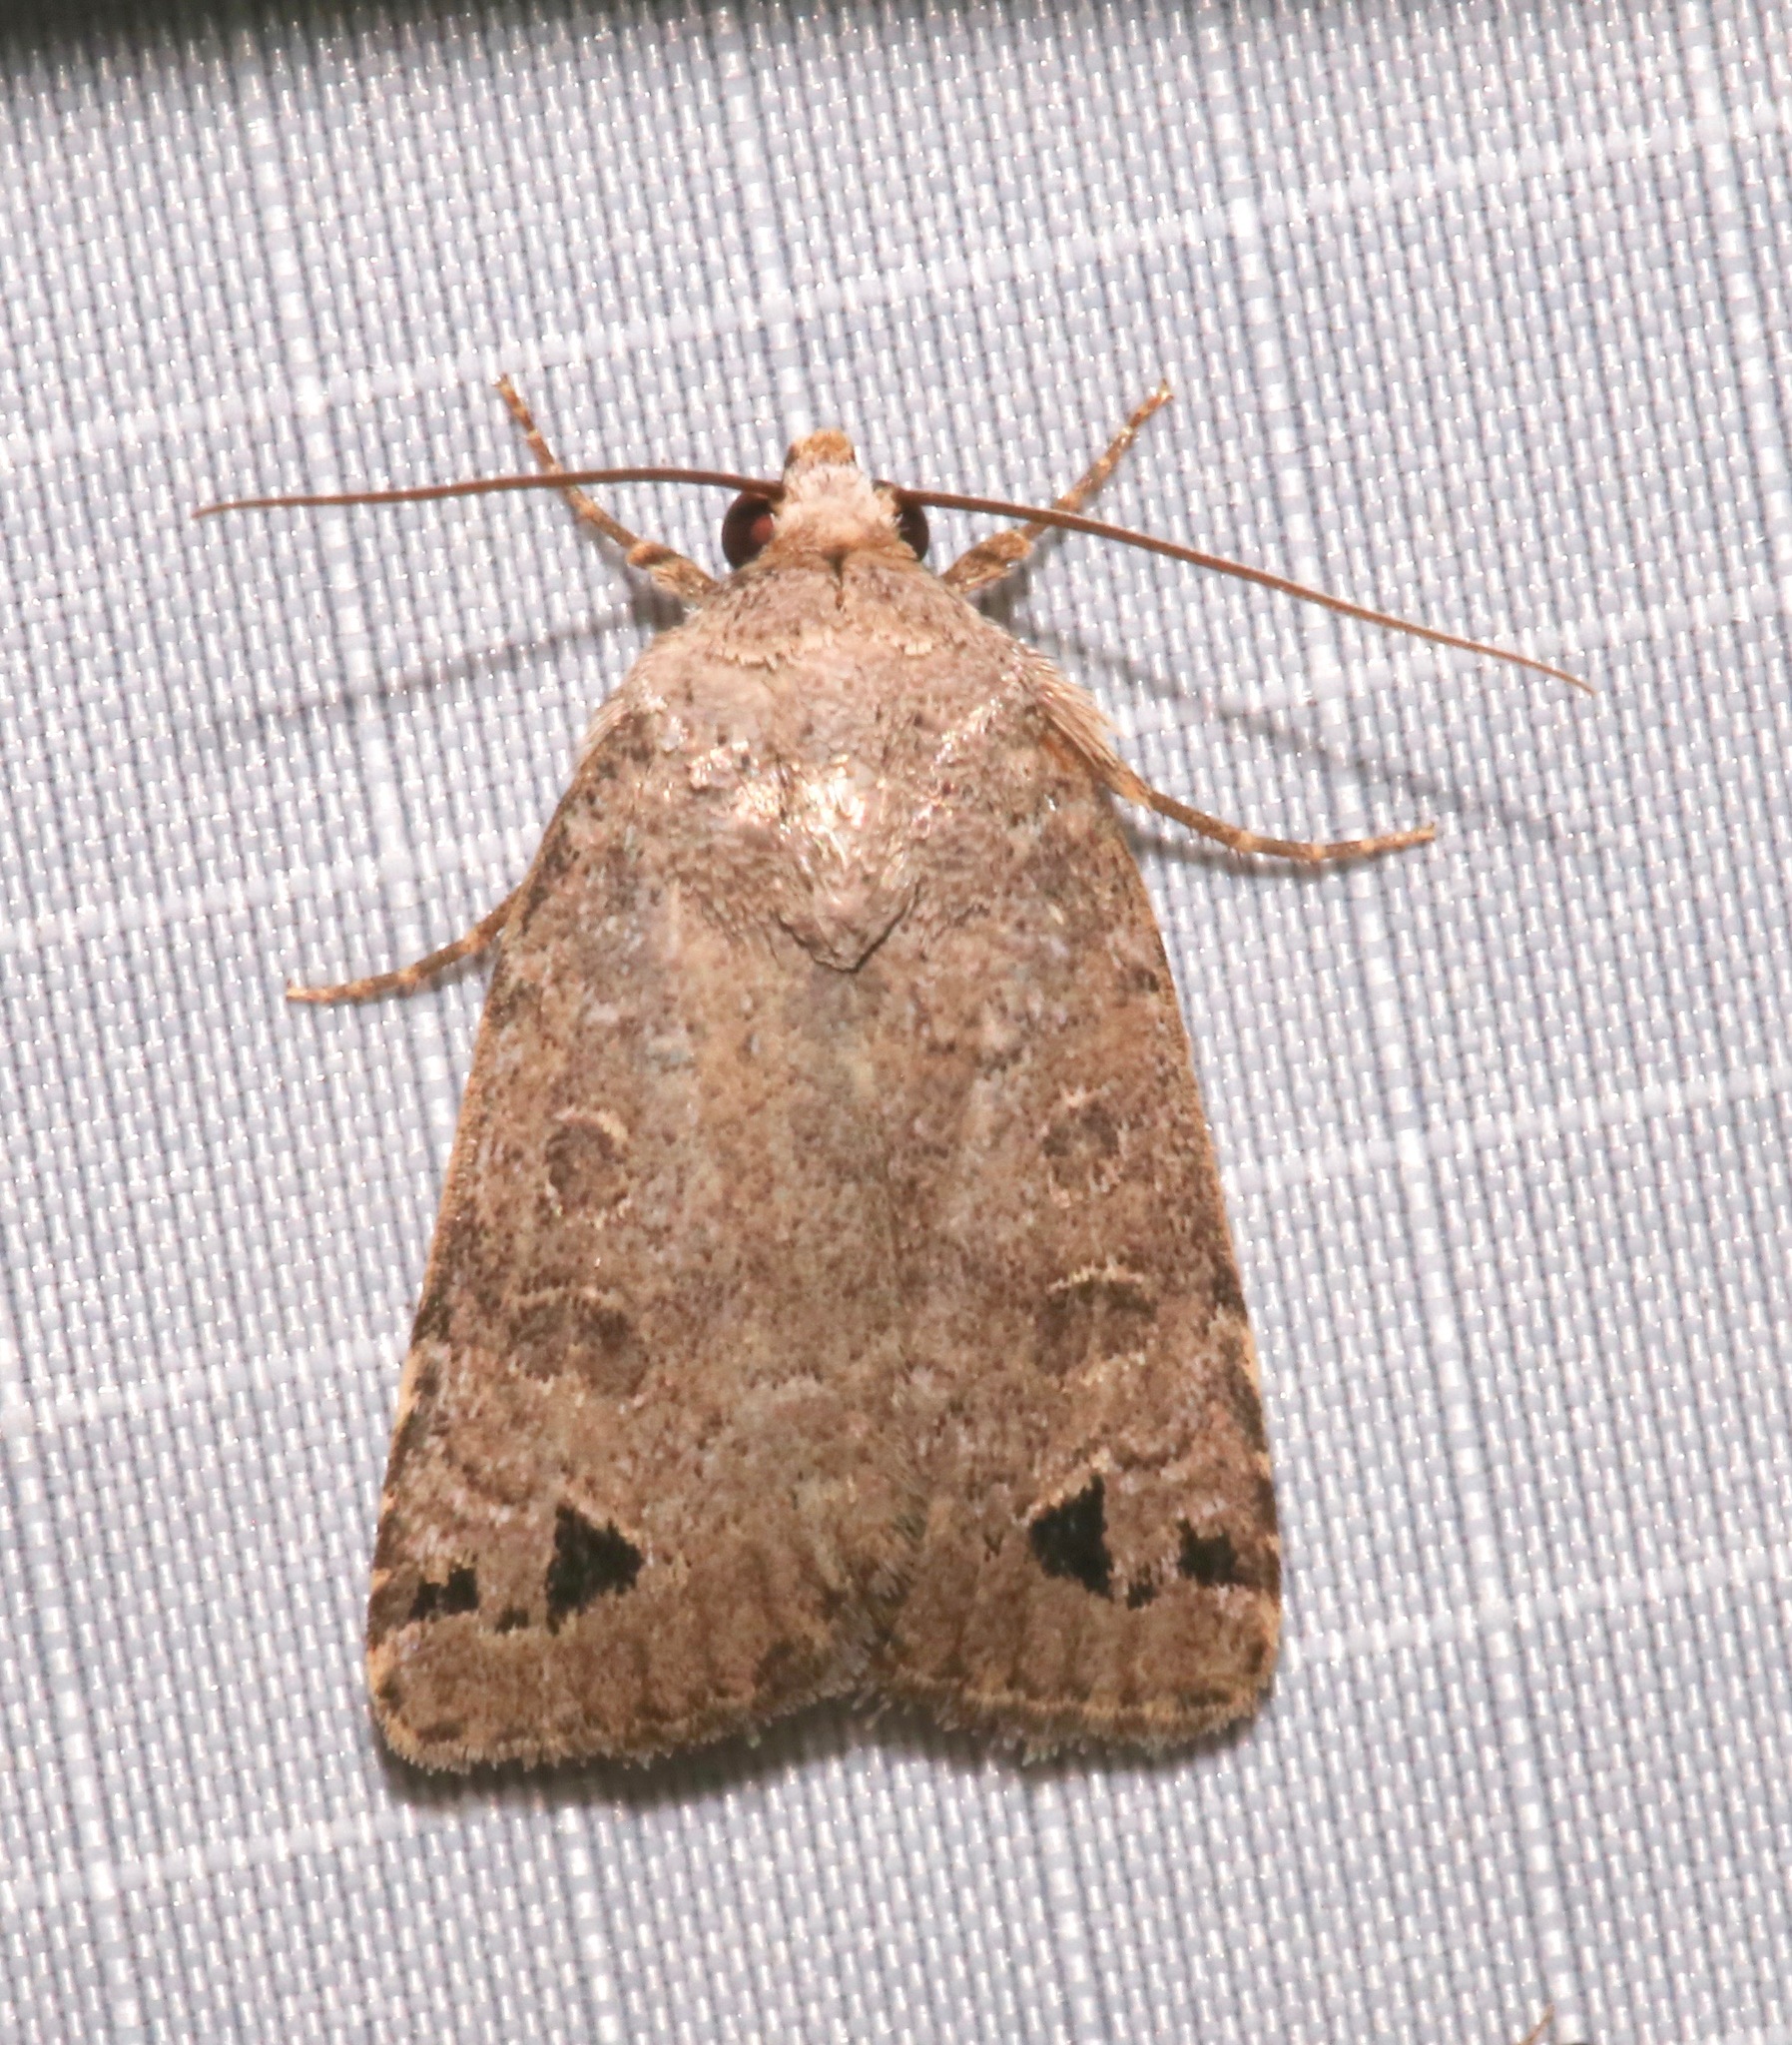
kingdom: Animalia
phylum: Arthropoda
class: Insecta
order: Lepidoptera
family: Noctuidae
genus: Anorthodes
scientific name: Anorthodes triquetra
